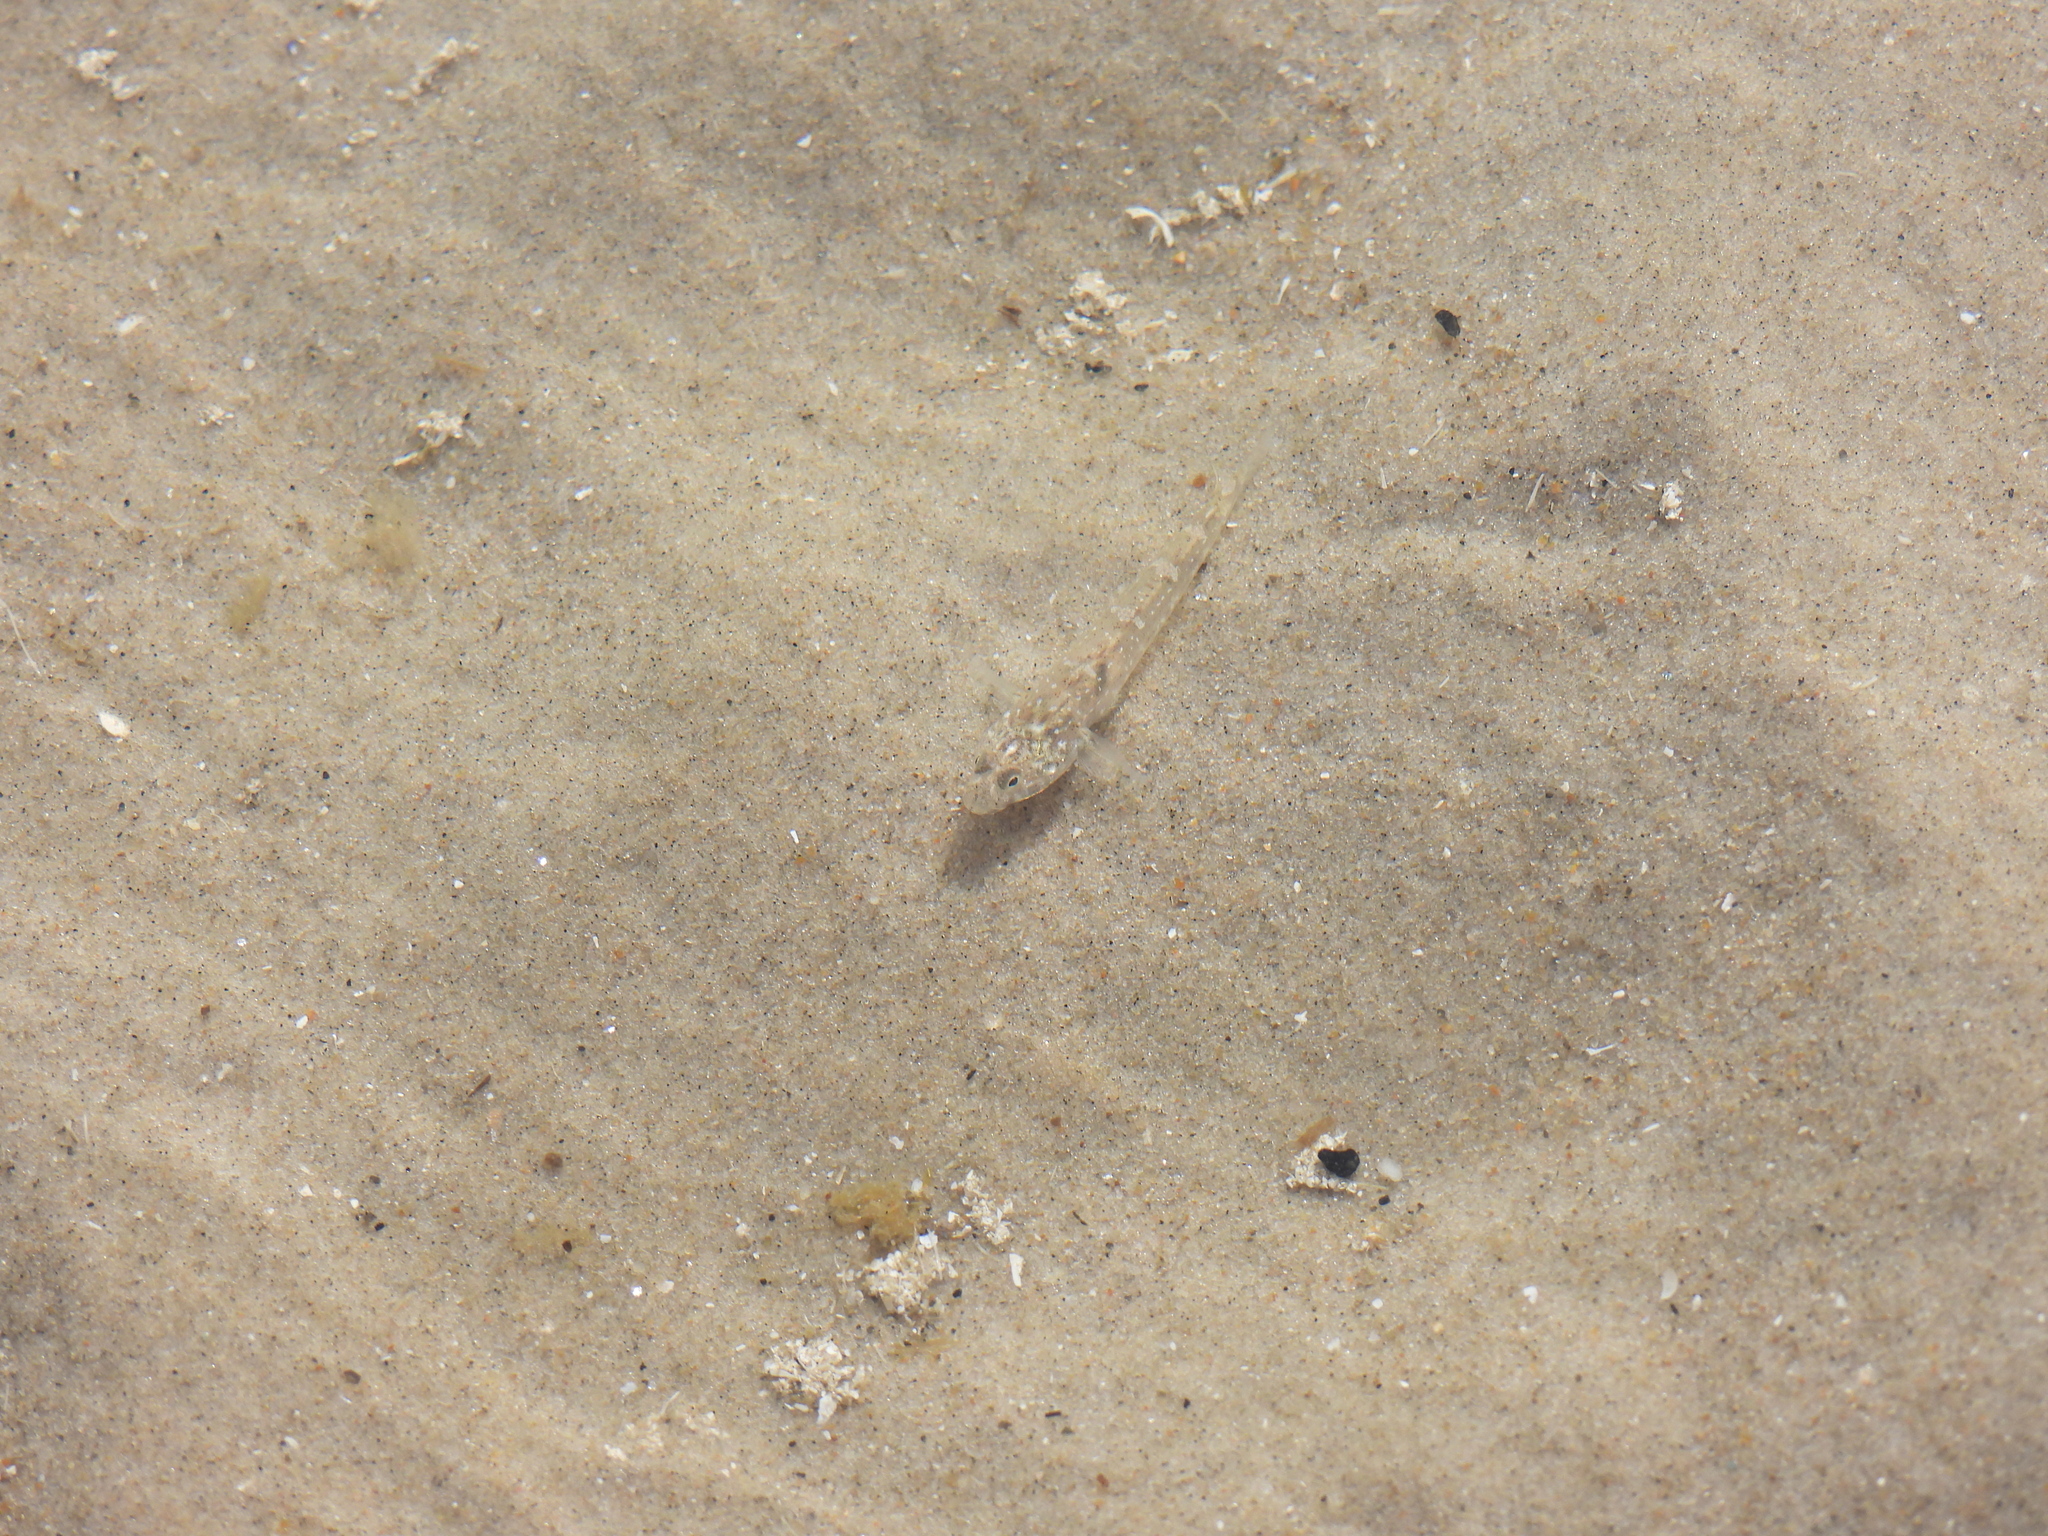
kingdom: Animalia
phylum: Chordata
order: Perciformes
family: Gobiidae
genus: Pomatoschistus
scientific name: Pomatoschistus microps
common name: Common goby
